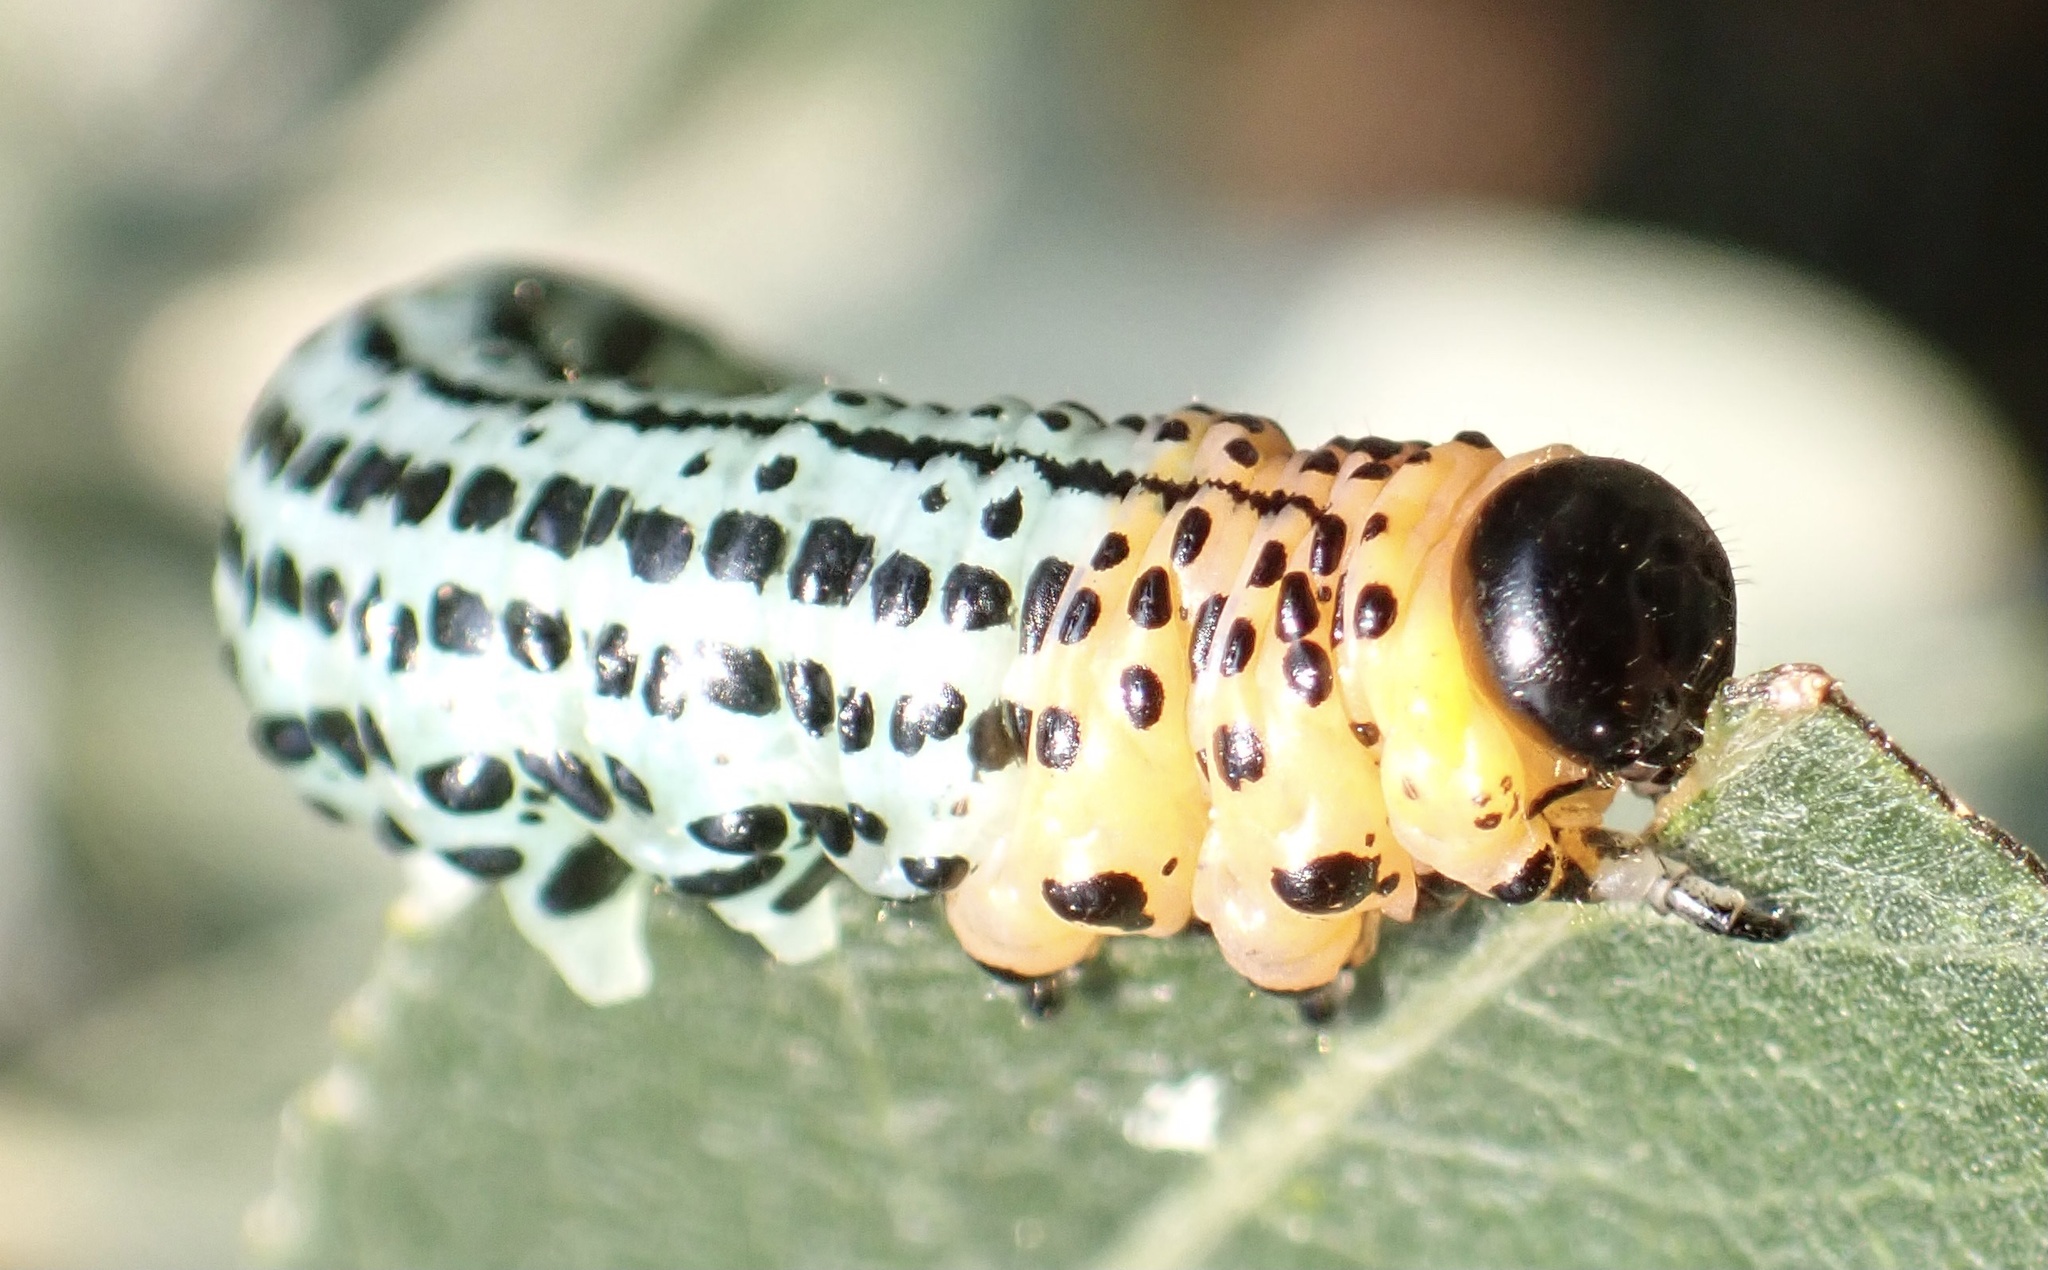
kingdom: Animalia
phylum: Arthropoda
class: Insecta
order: Hymenoptera
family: Tenthredinidae
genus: Nematus
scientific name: Nematus salicis
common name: Willow sawfly
